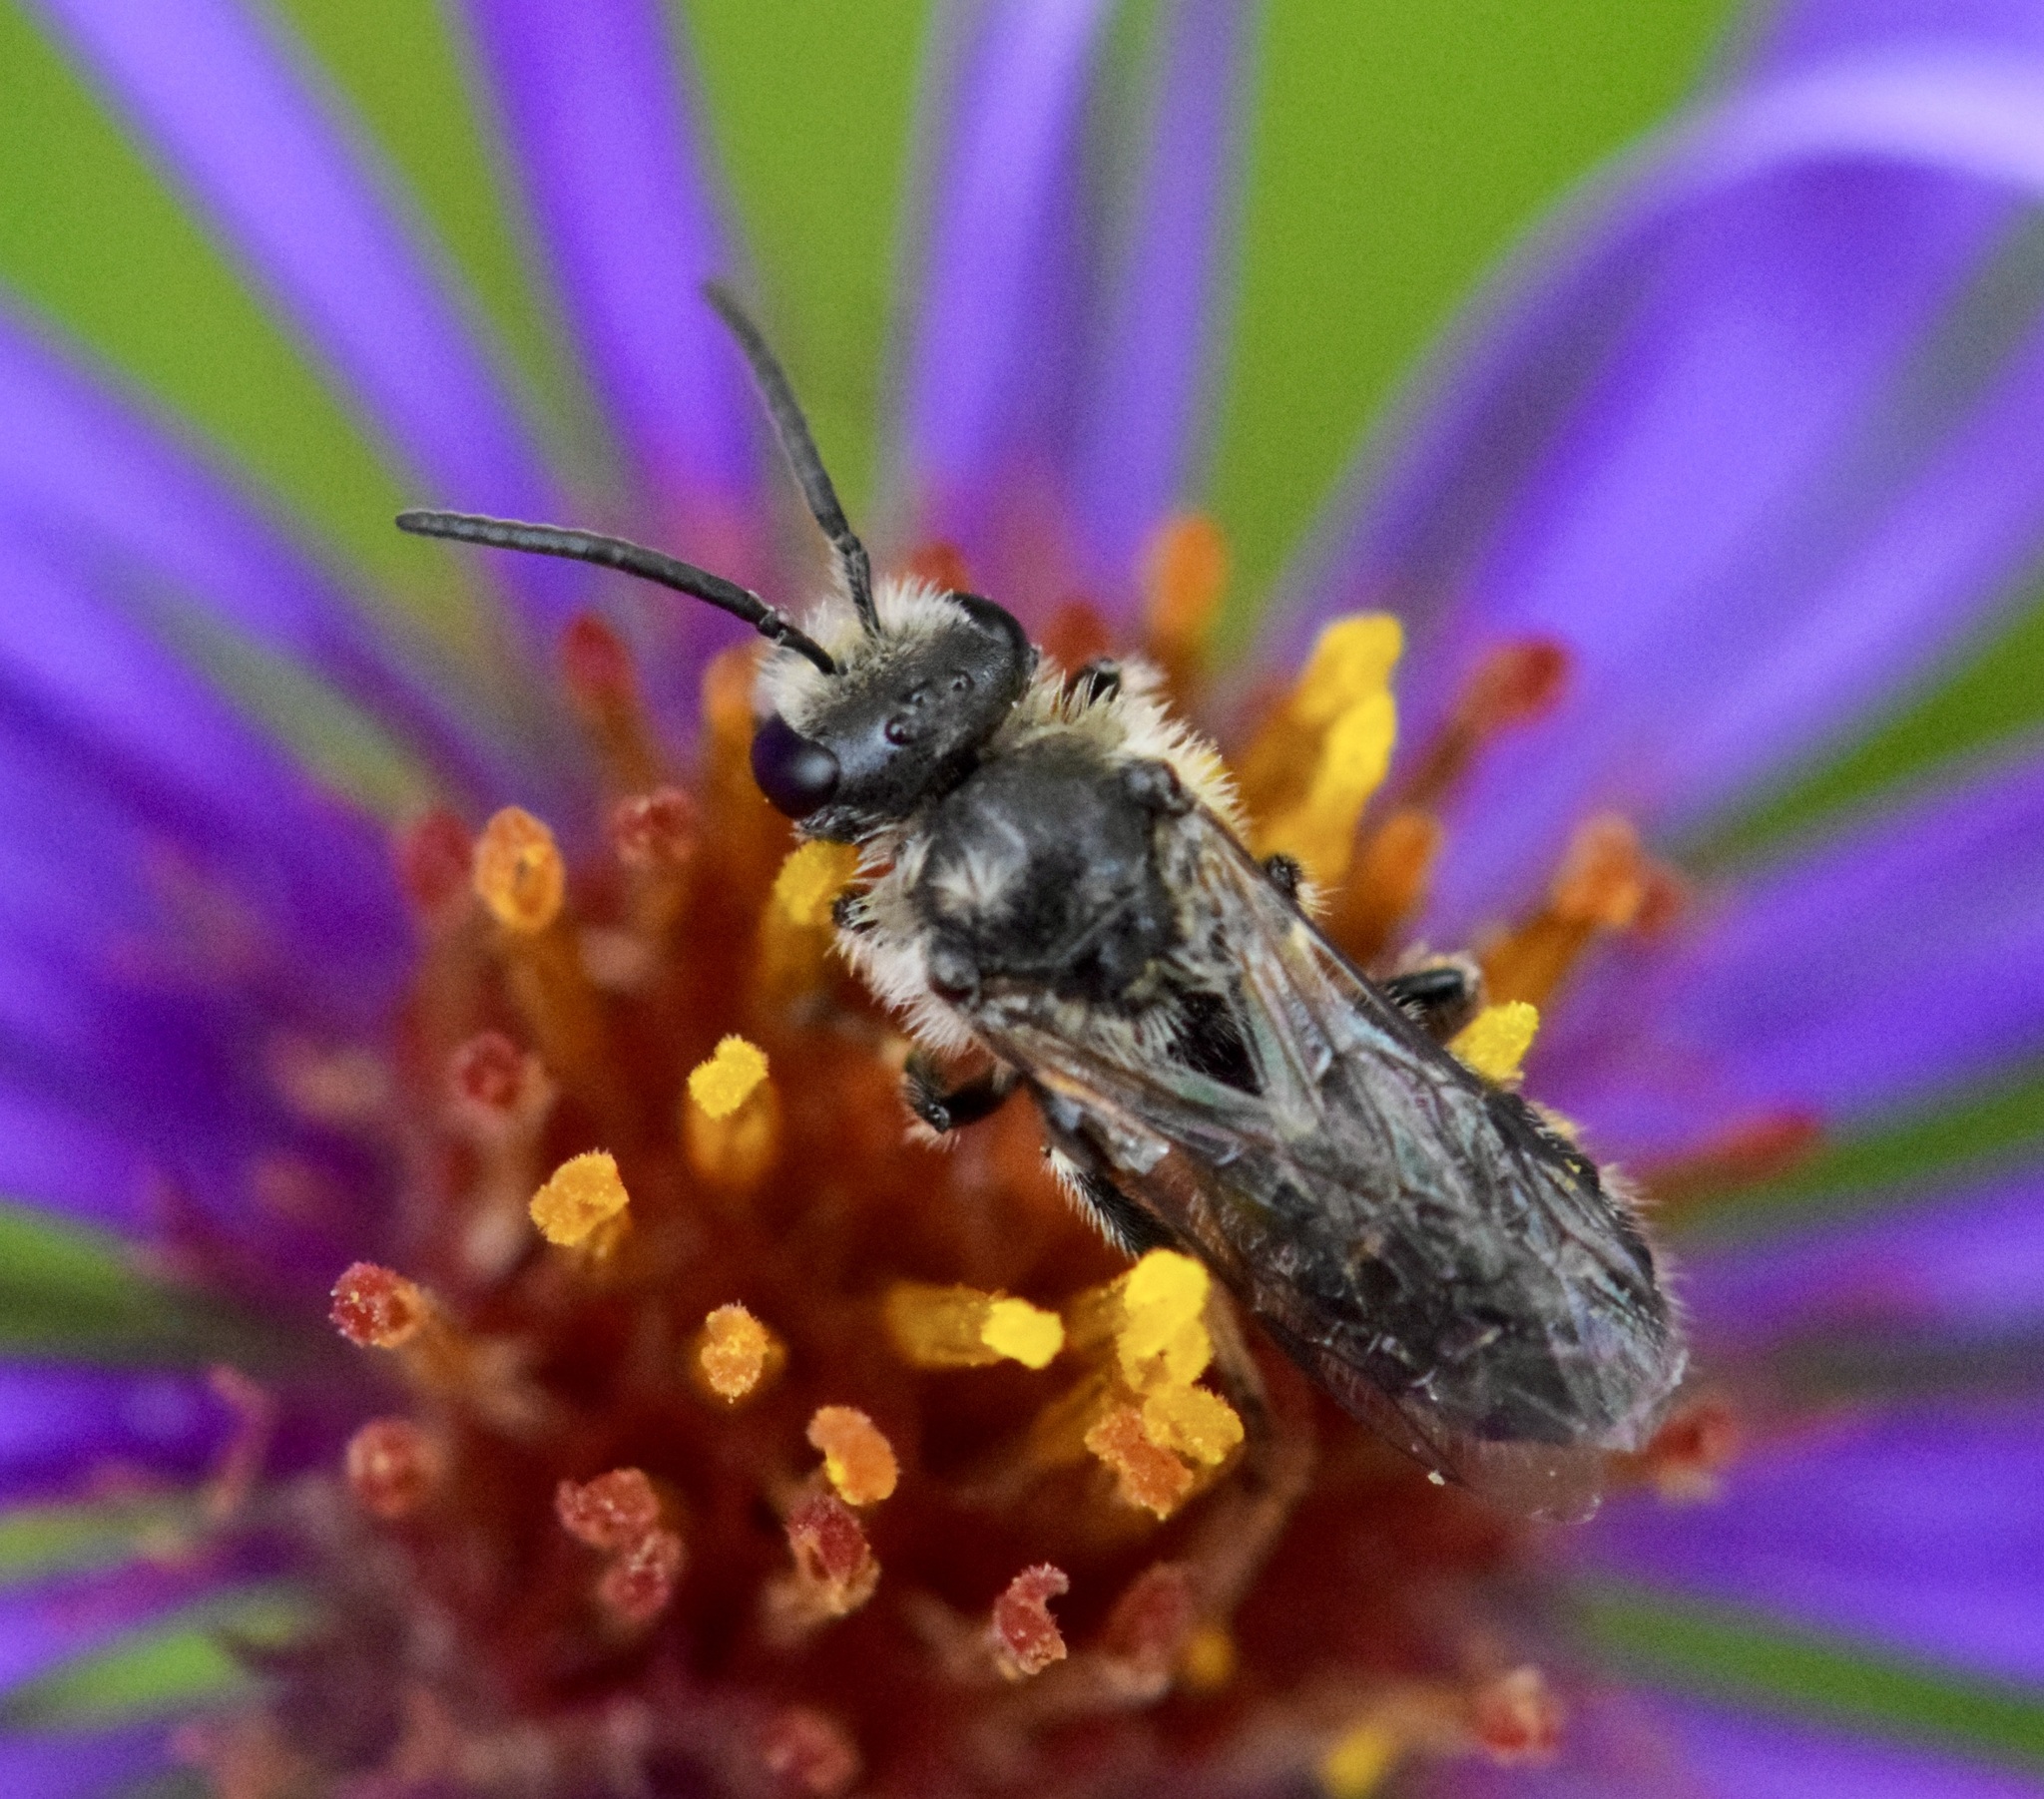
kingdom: Animalia
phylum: Arthropoda
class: Insecta
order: Hymenoptera
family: Halictidae
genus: Lasioglossum
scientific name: Lasioglossum leucozonium
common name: White-zoned furrow bee
